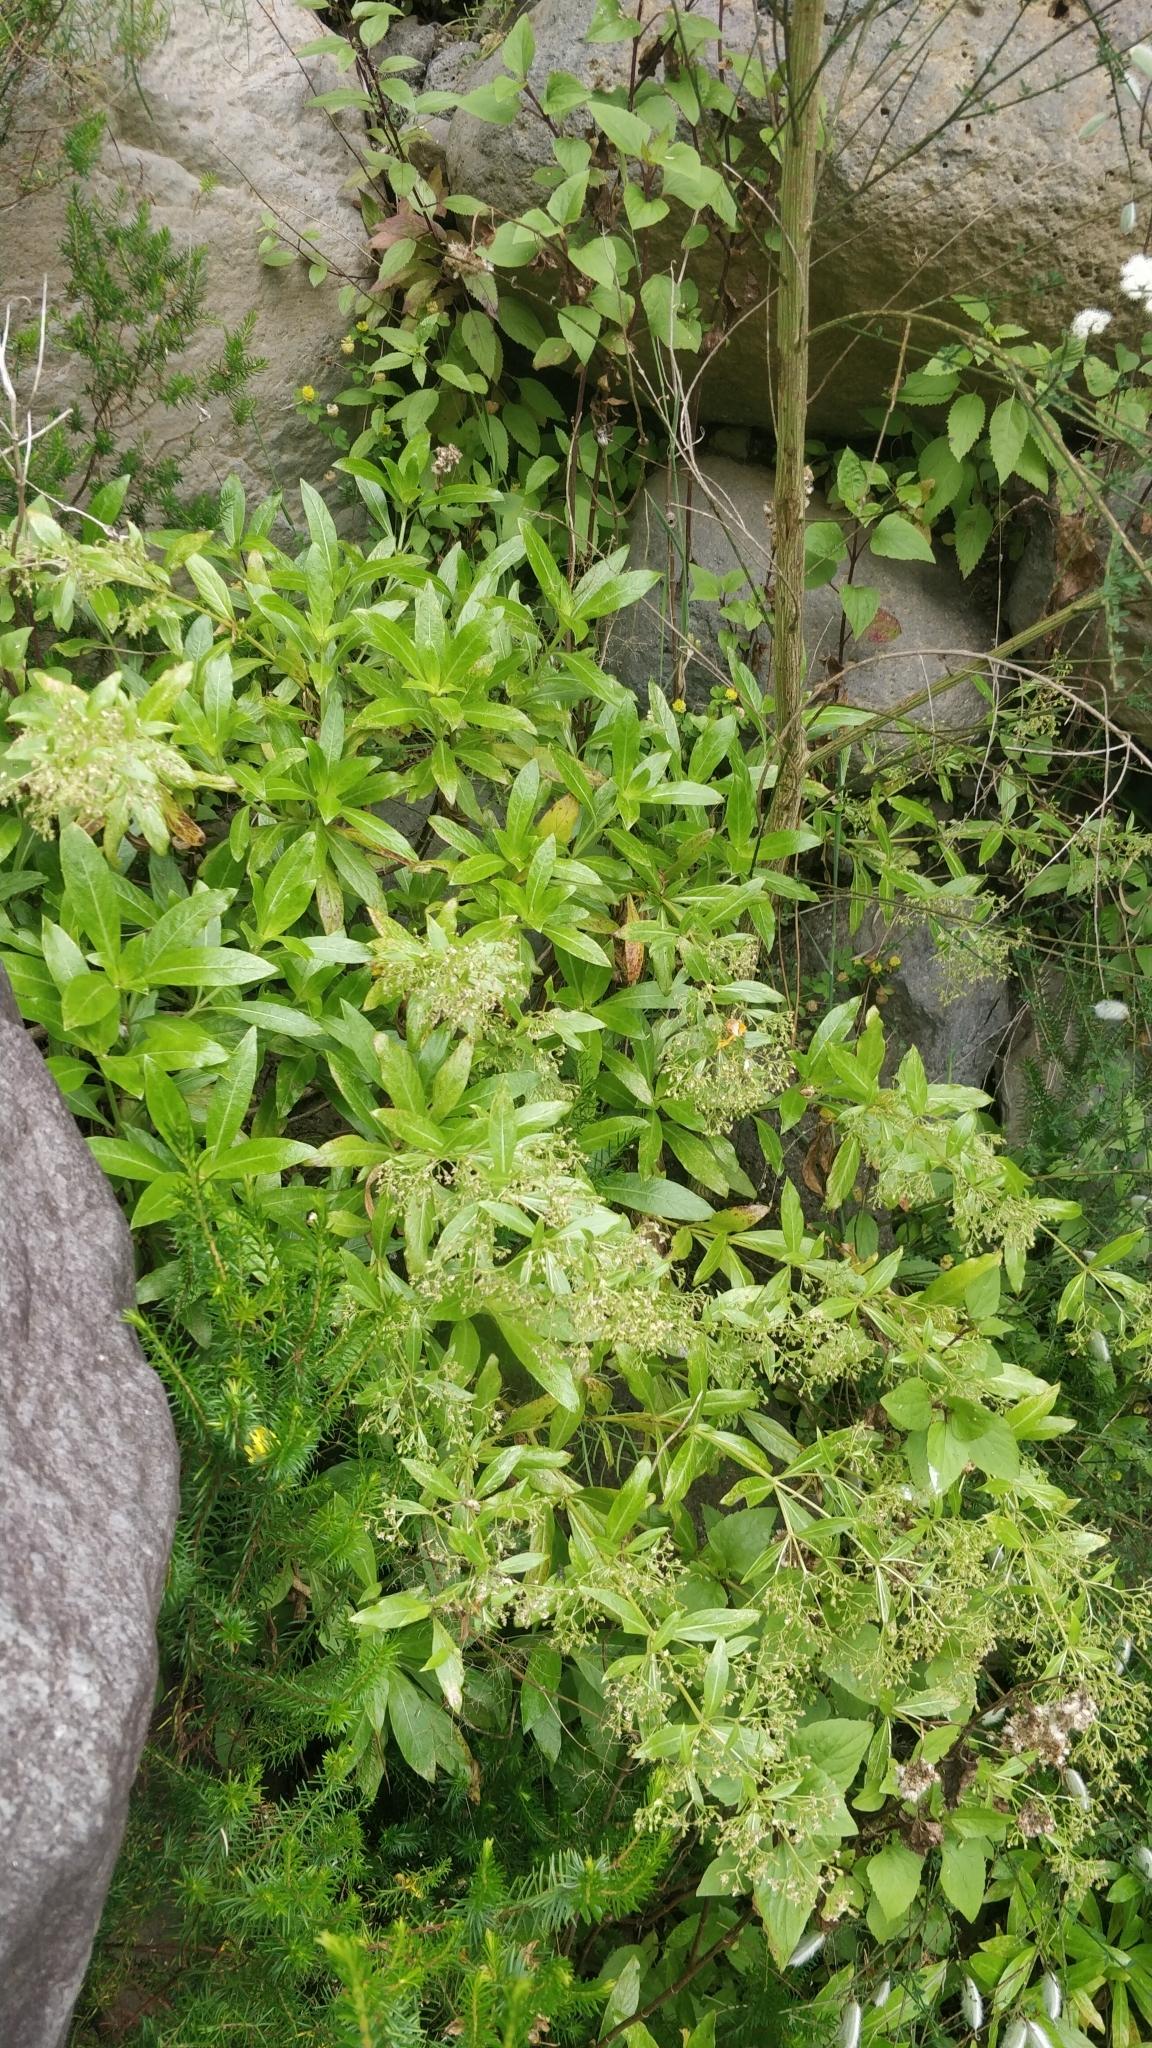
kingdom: Plantae
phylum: Tracheophyta
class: Magnoliopsida
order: Gentianales
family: Rubiaceae
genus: Phyllis
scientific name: Phyllis nobla
